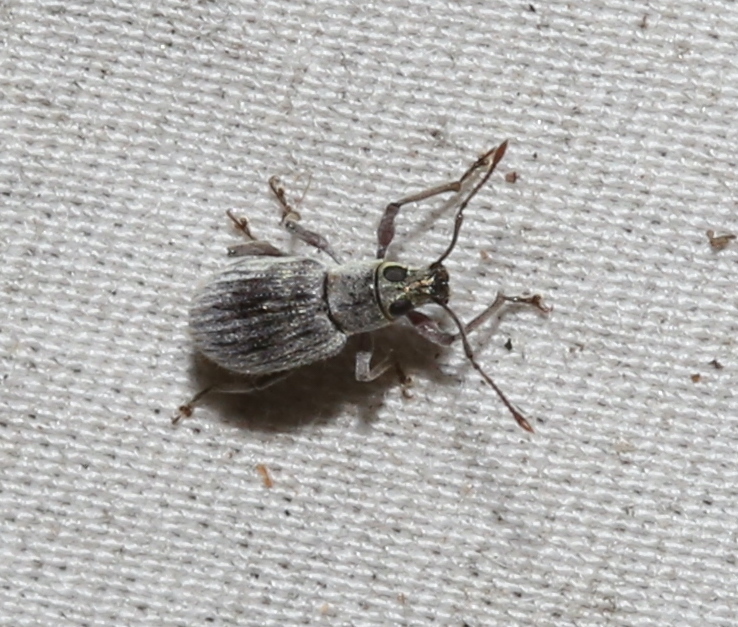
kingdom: Animalia
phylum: Arthropoda
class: Insecta
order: Coleoptera
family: Curculionidae
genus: Cyrtepistomus
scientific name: Cyrtepistomus castaneus
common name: Weevil
